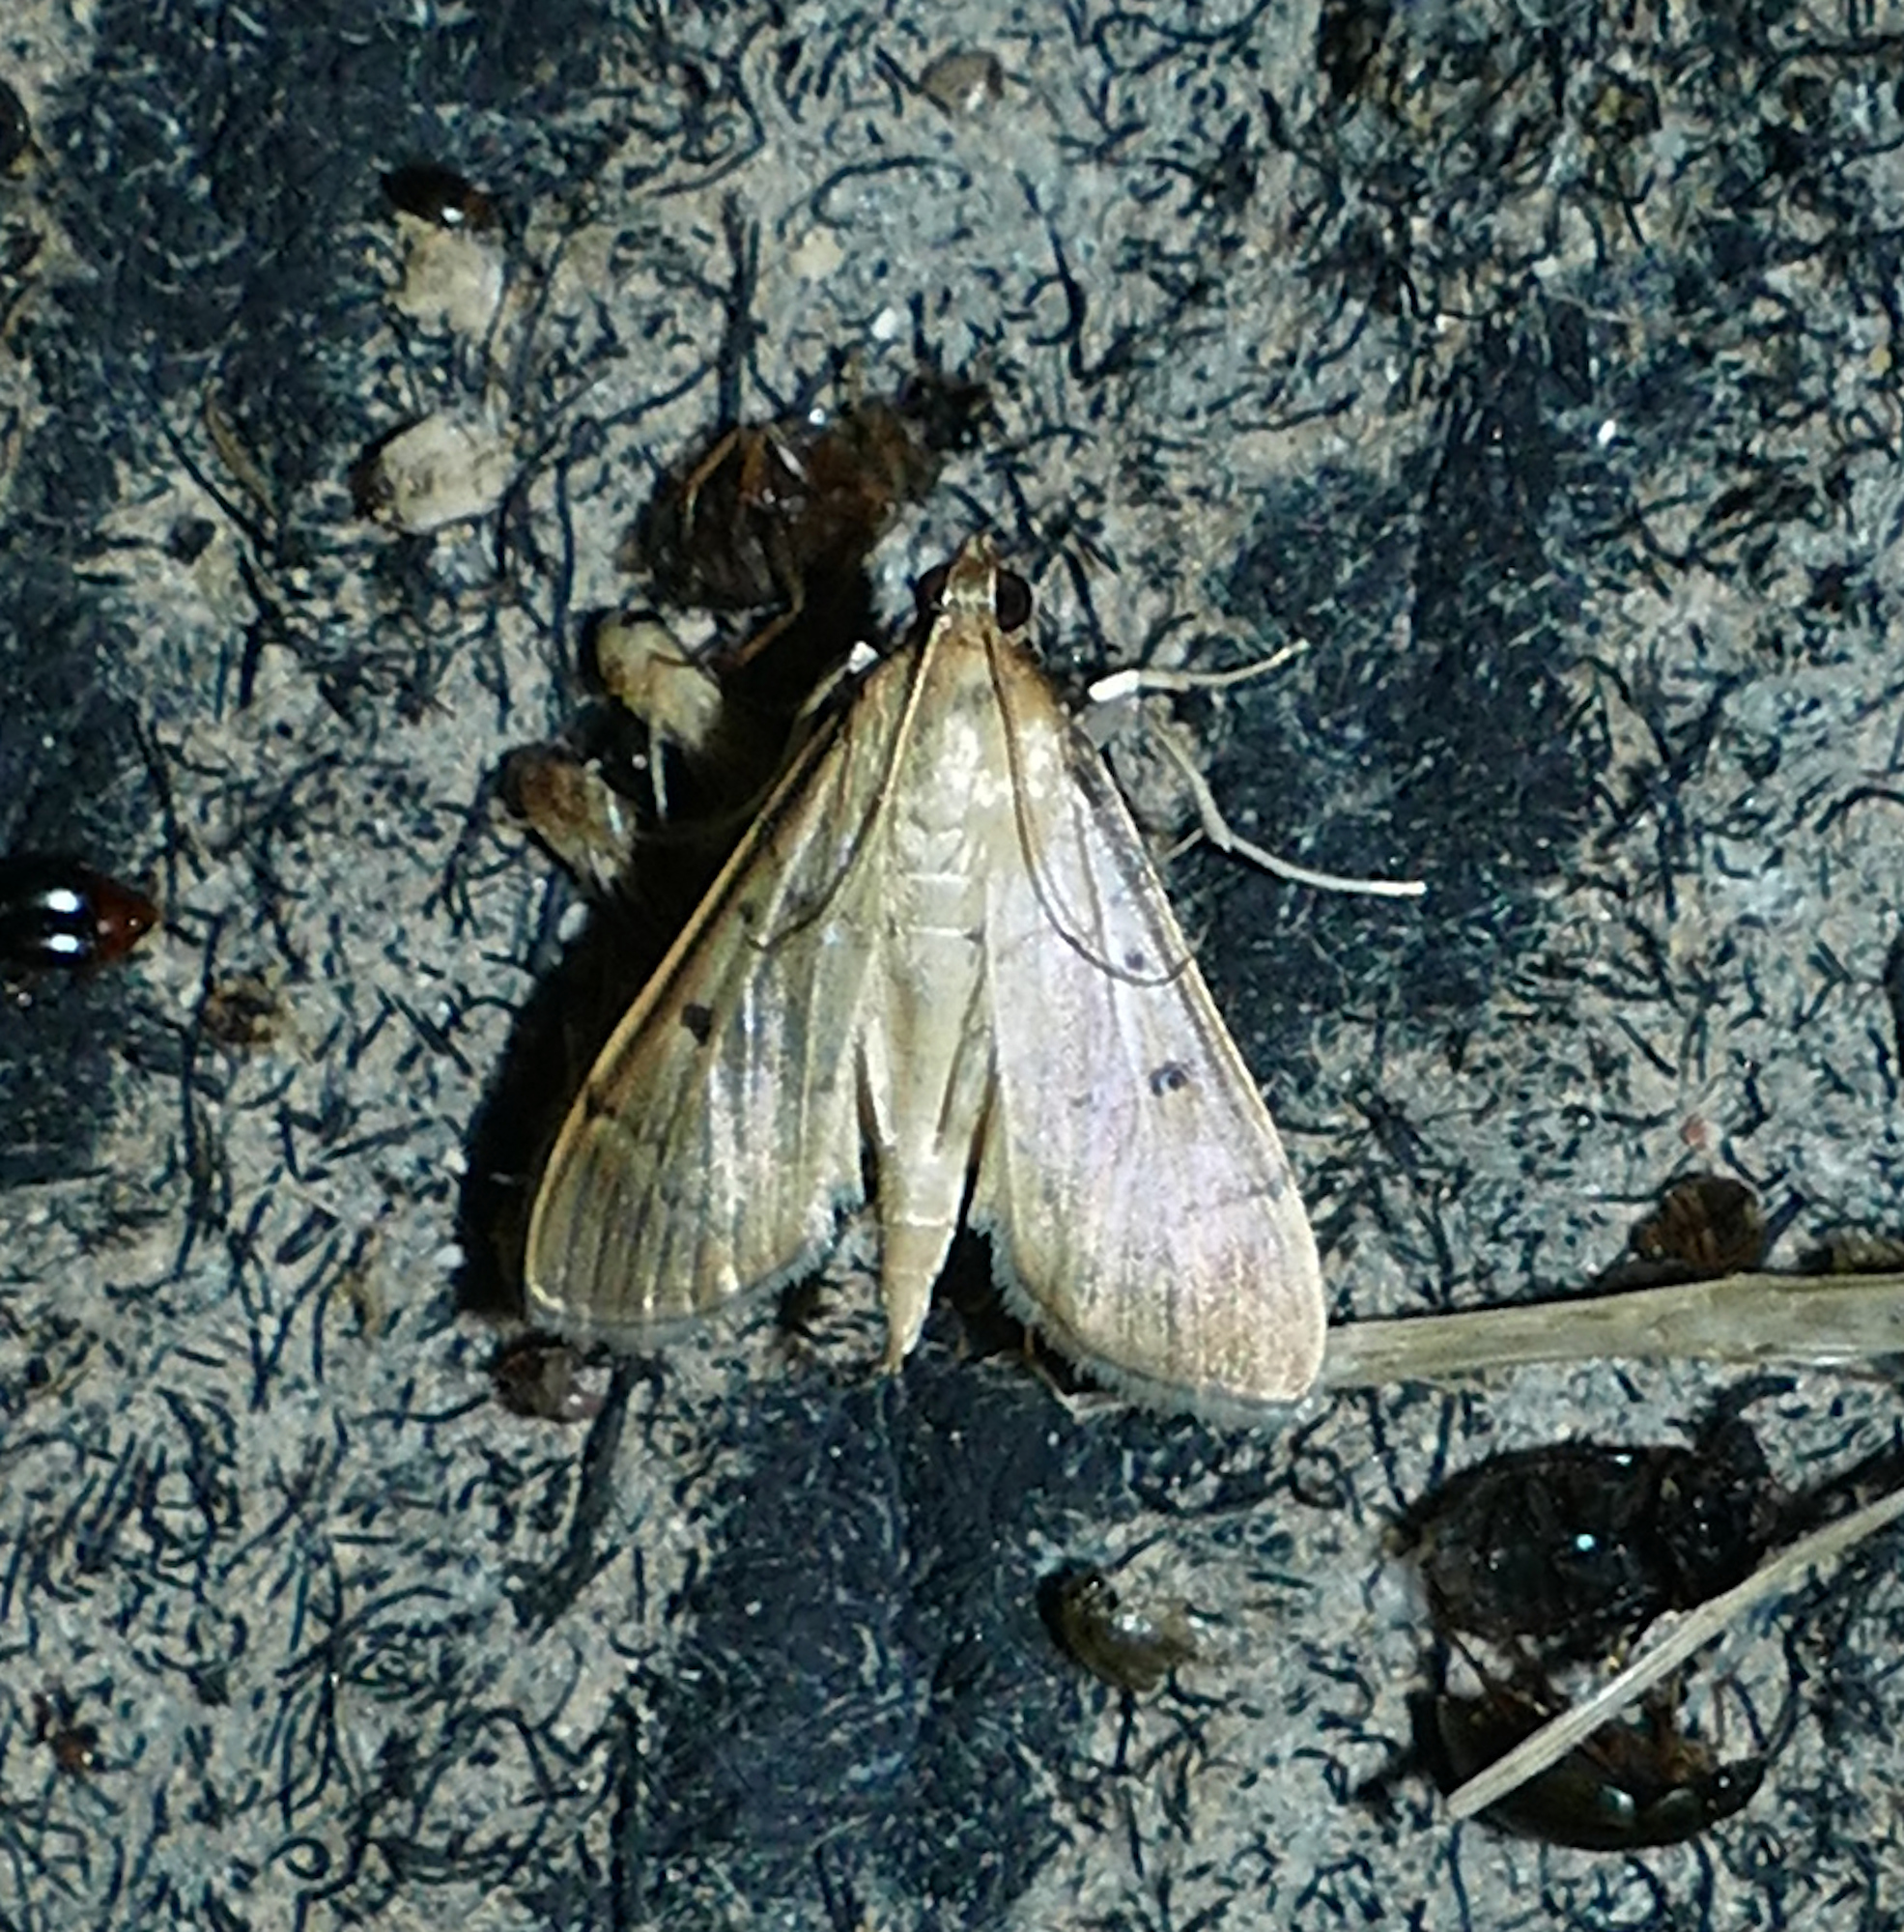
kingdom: Animalia
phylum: Arthropoda
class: Insecta
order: Lepidoptera
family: Crambidae
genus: Herpetogramma
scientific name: Herpetogramma bipunctalis
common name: Southern beet webworm
